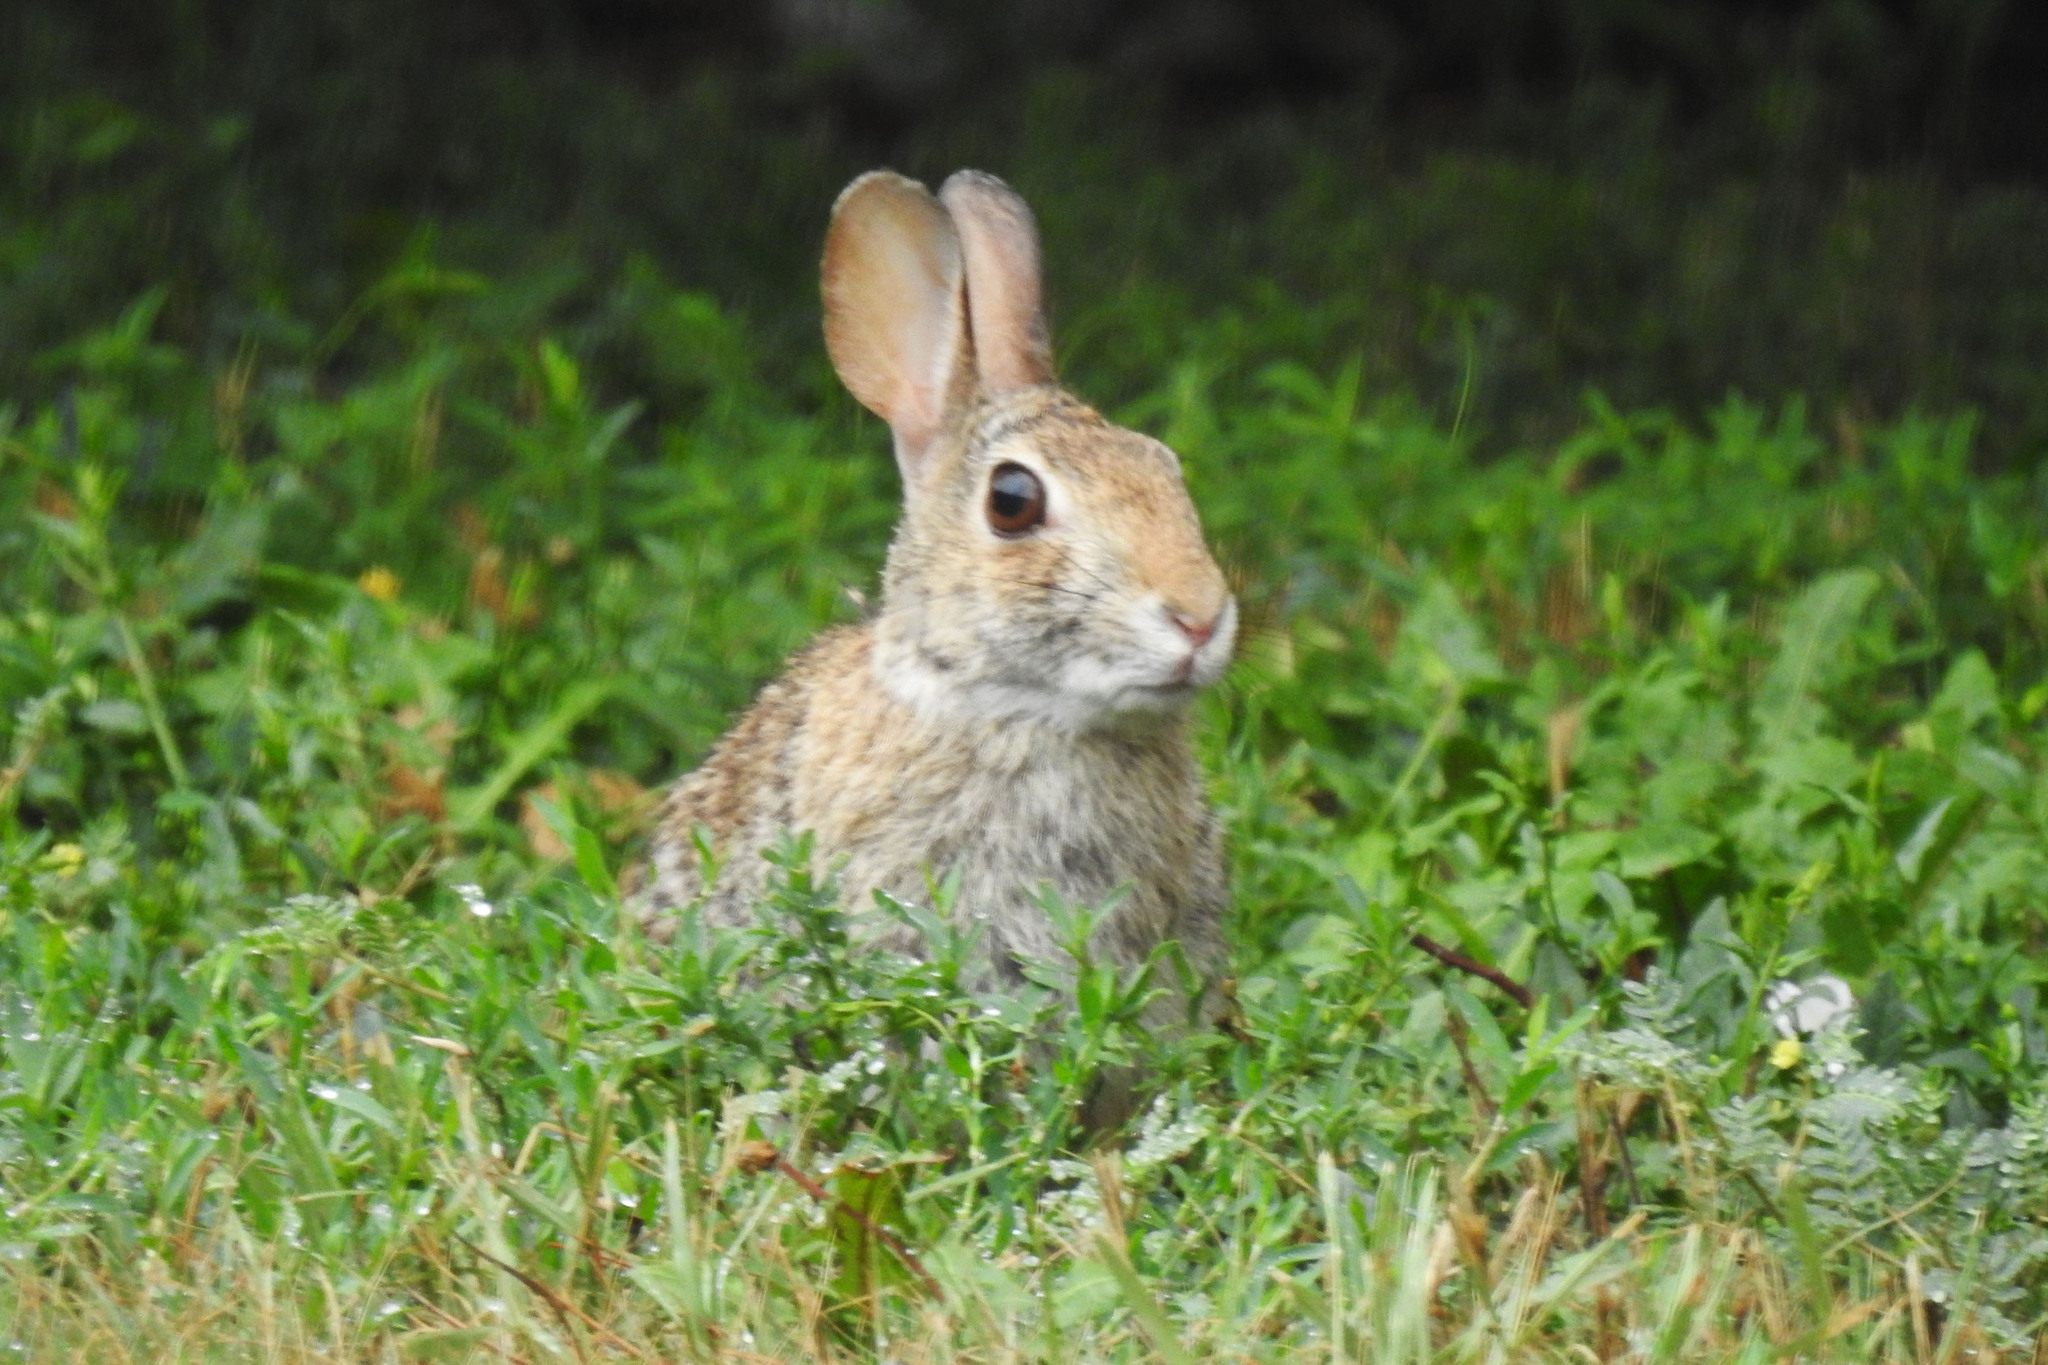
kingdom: Animalia
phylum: Chordata
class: Mammalia
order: Lagomorpha
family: Leporidae
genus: Sylvilagus
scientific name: Sylvilagus floridanus
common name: Eastern cottontail
